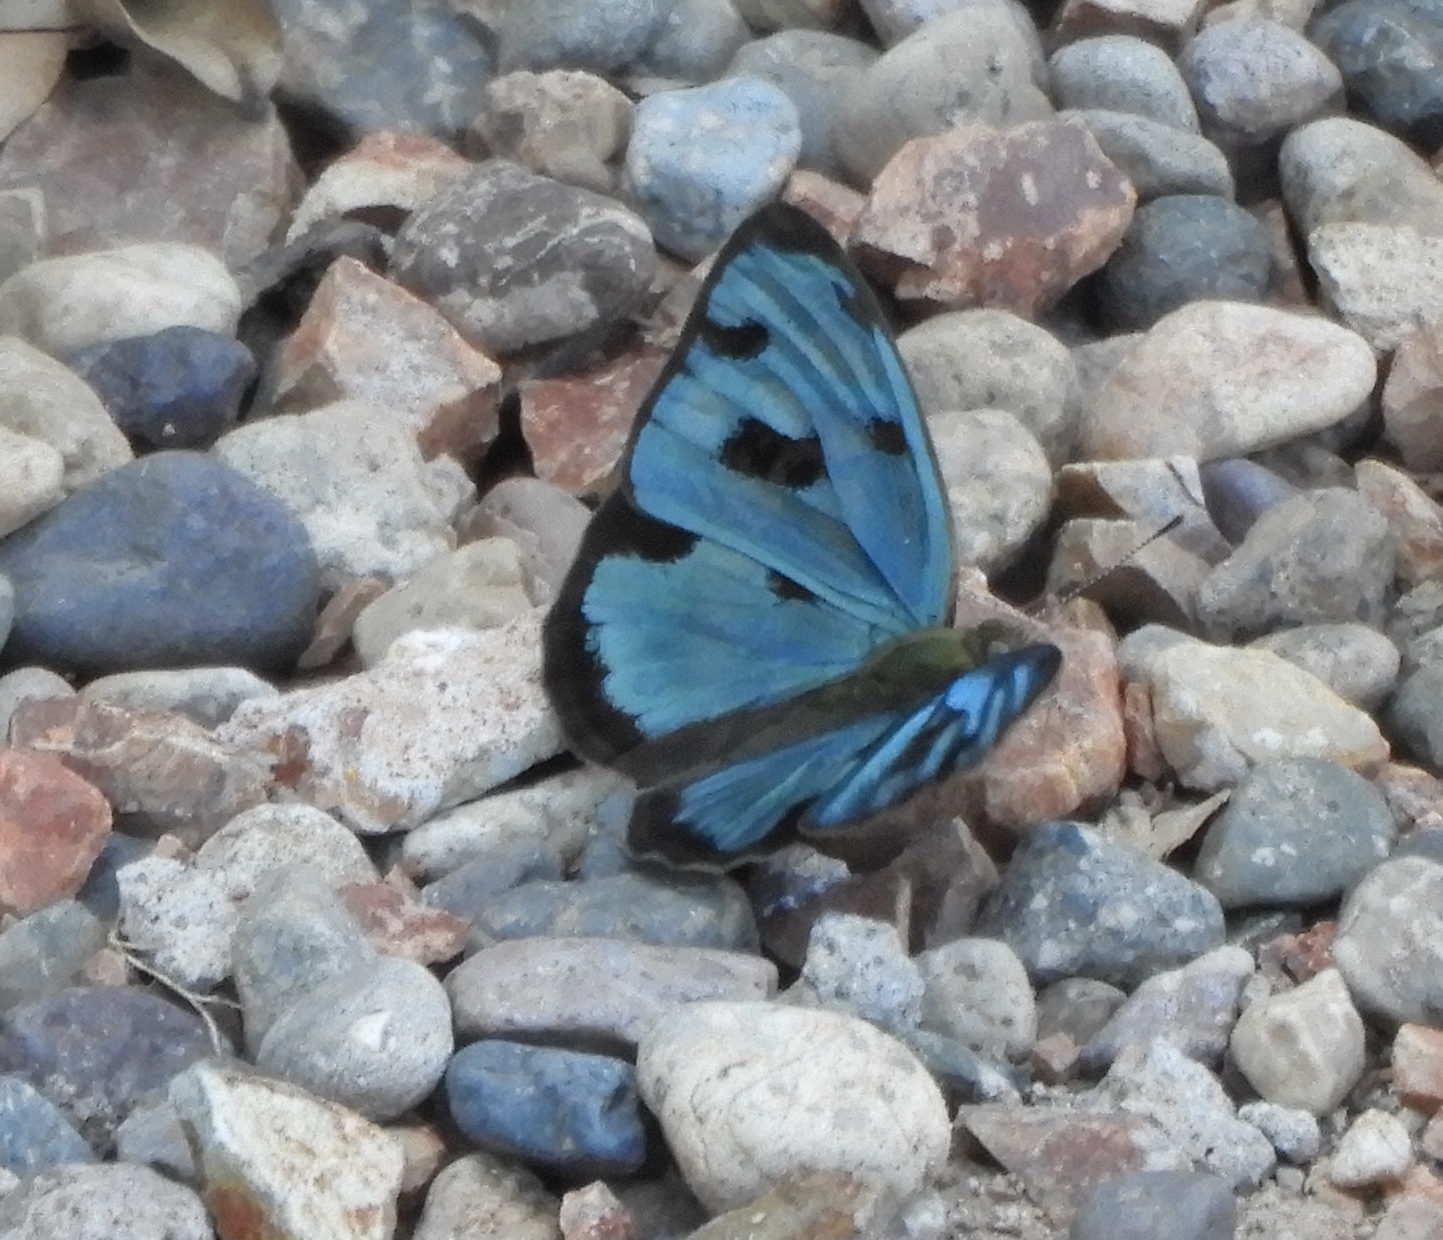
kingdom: Animalia
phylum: Arthropoda
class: Insecta
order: Lepidoptera
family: Nymphalidae
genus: Dynamine
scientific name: Dynamine mylitta
